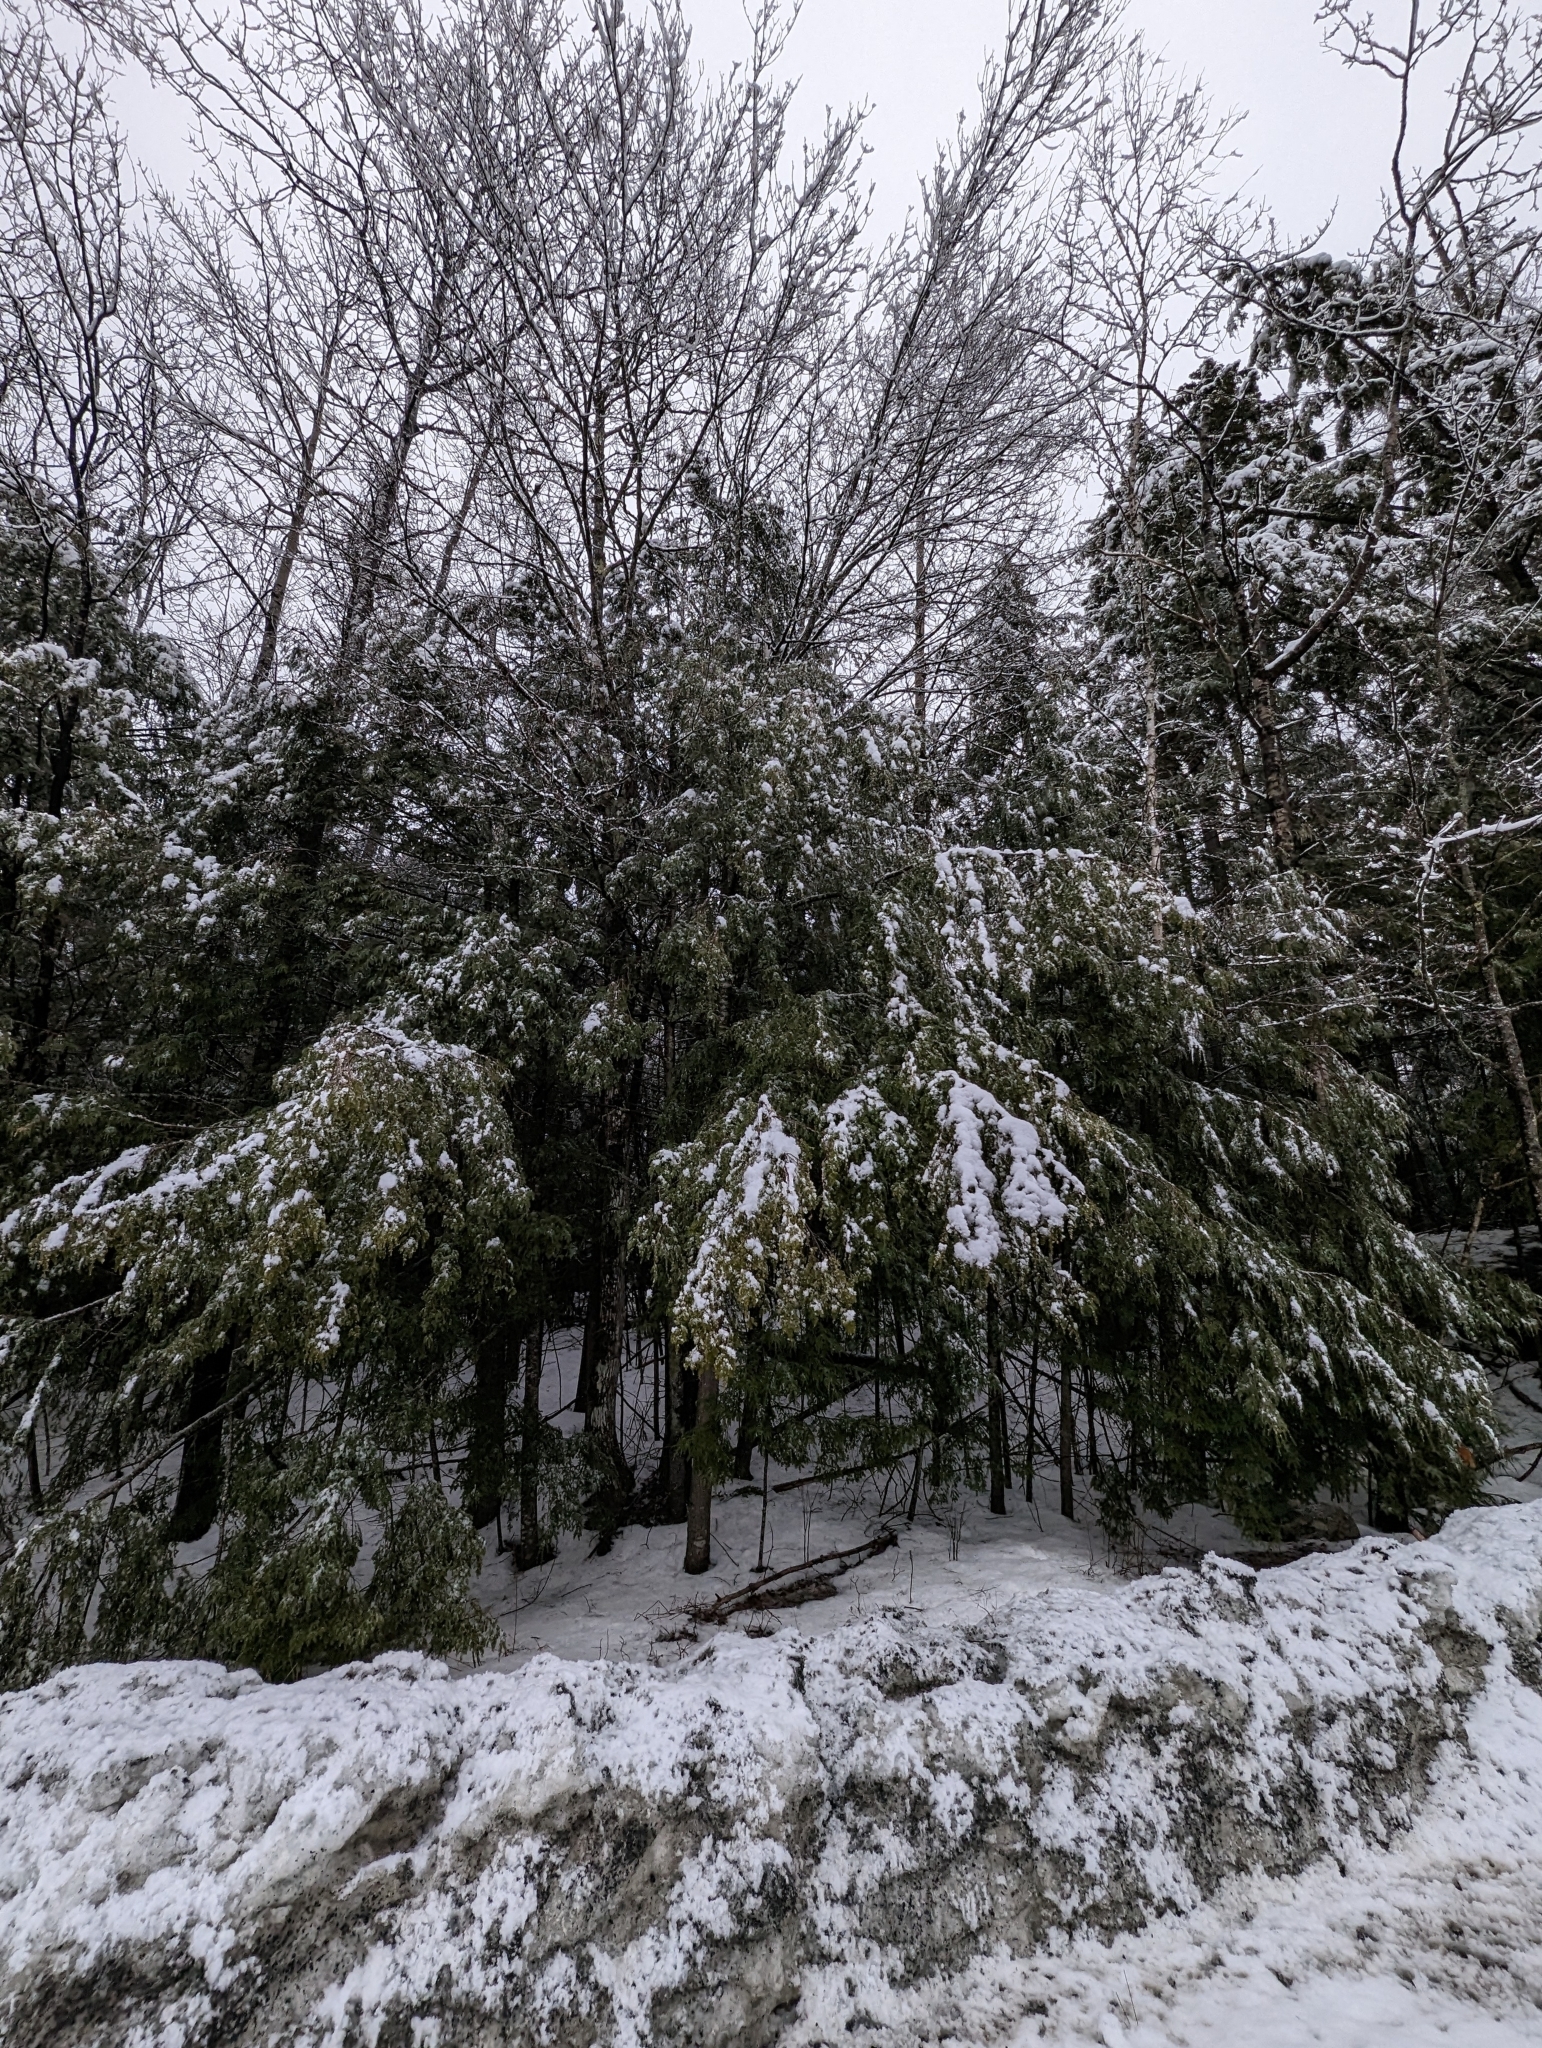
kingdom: Plantae
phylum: Tracheophyta
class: Pinopsida
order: Pinales
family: Pinaceae
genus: Tsuga
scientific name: Tsuga canadensis
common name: Eastern hemlock
